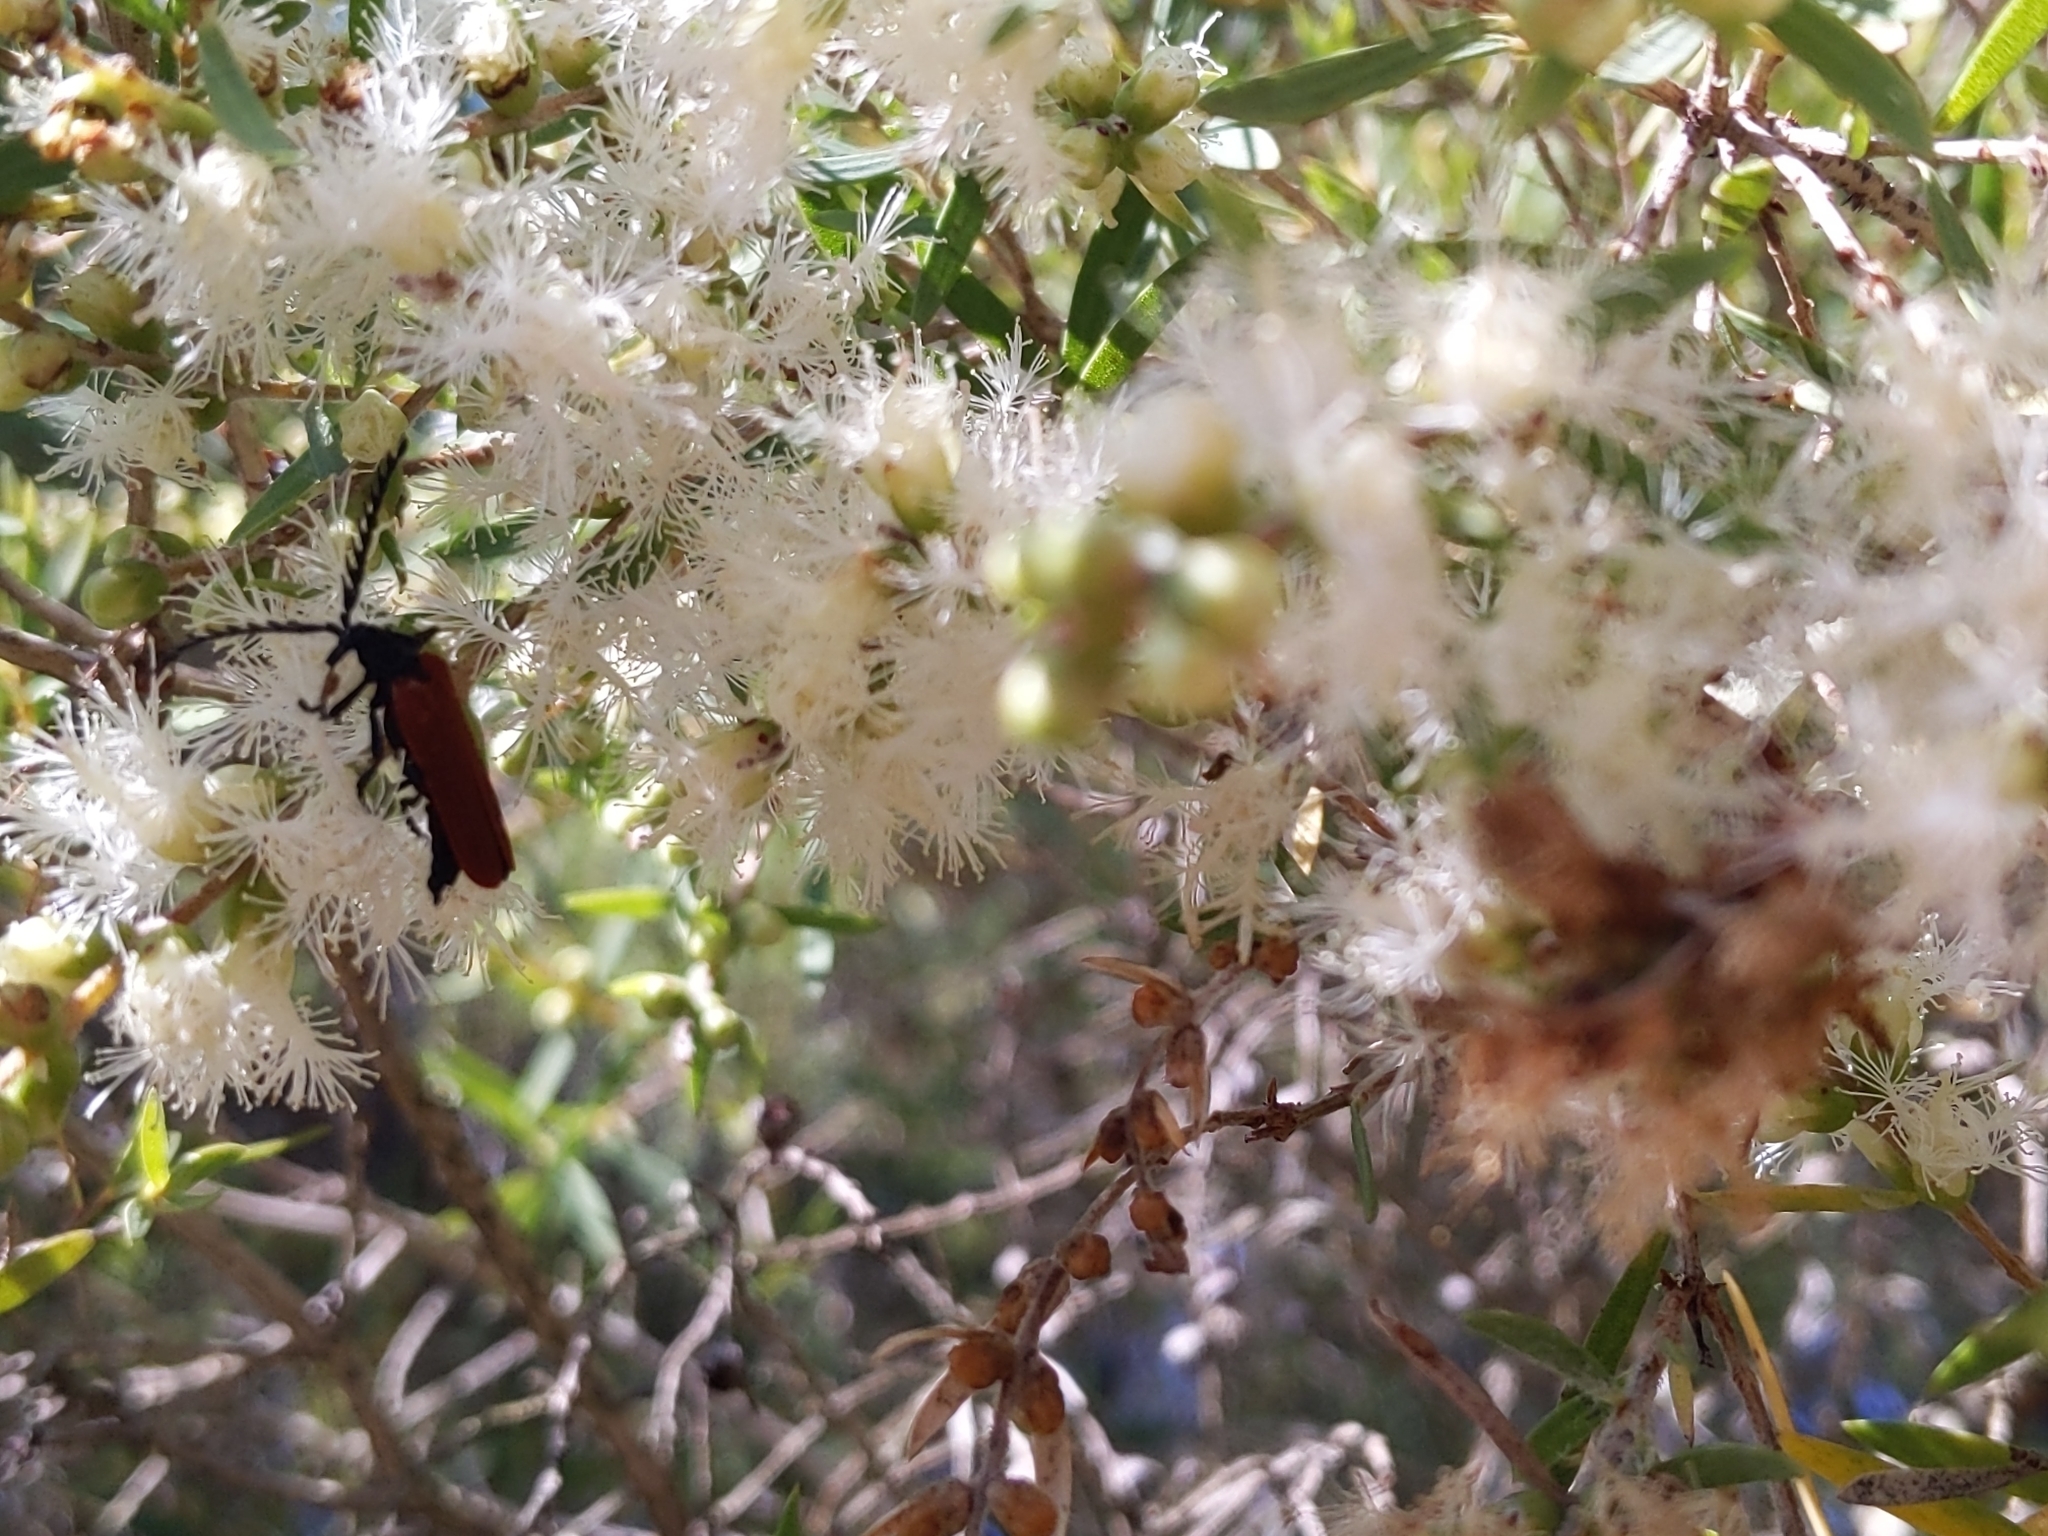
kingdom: Animalia
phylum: Arthropoda
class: Insecta
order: Coleoptera
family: Lycidae
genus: Porrostoma
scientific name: Porrostoma rhipidium
